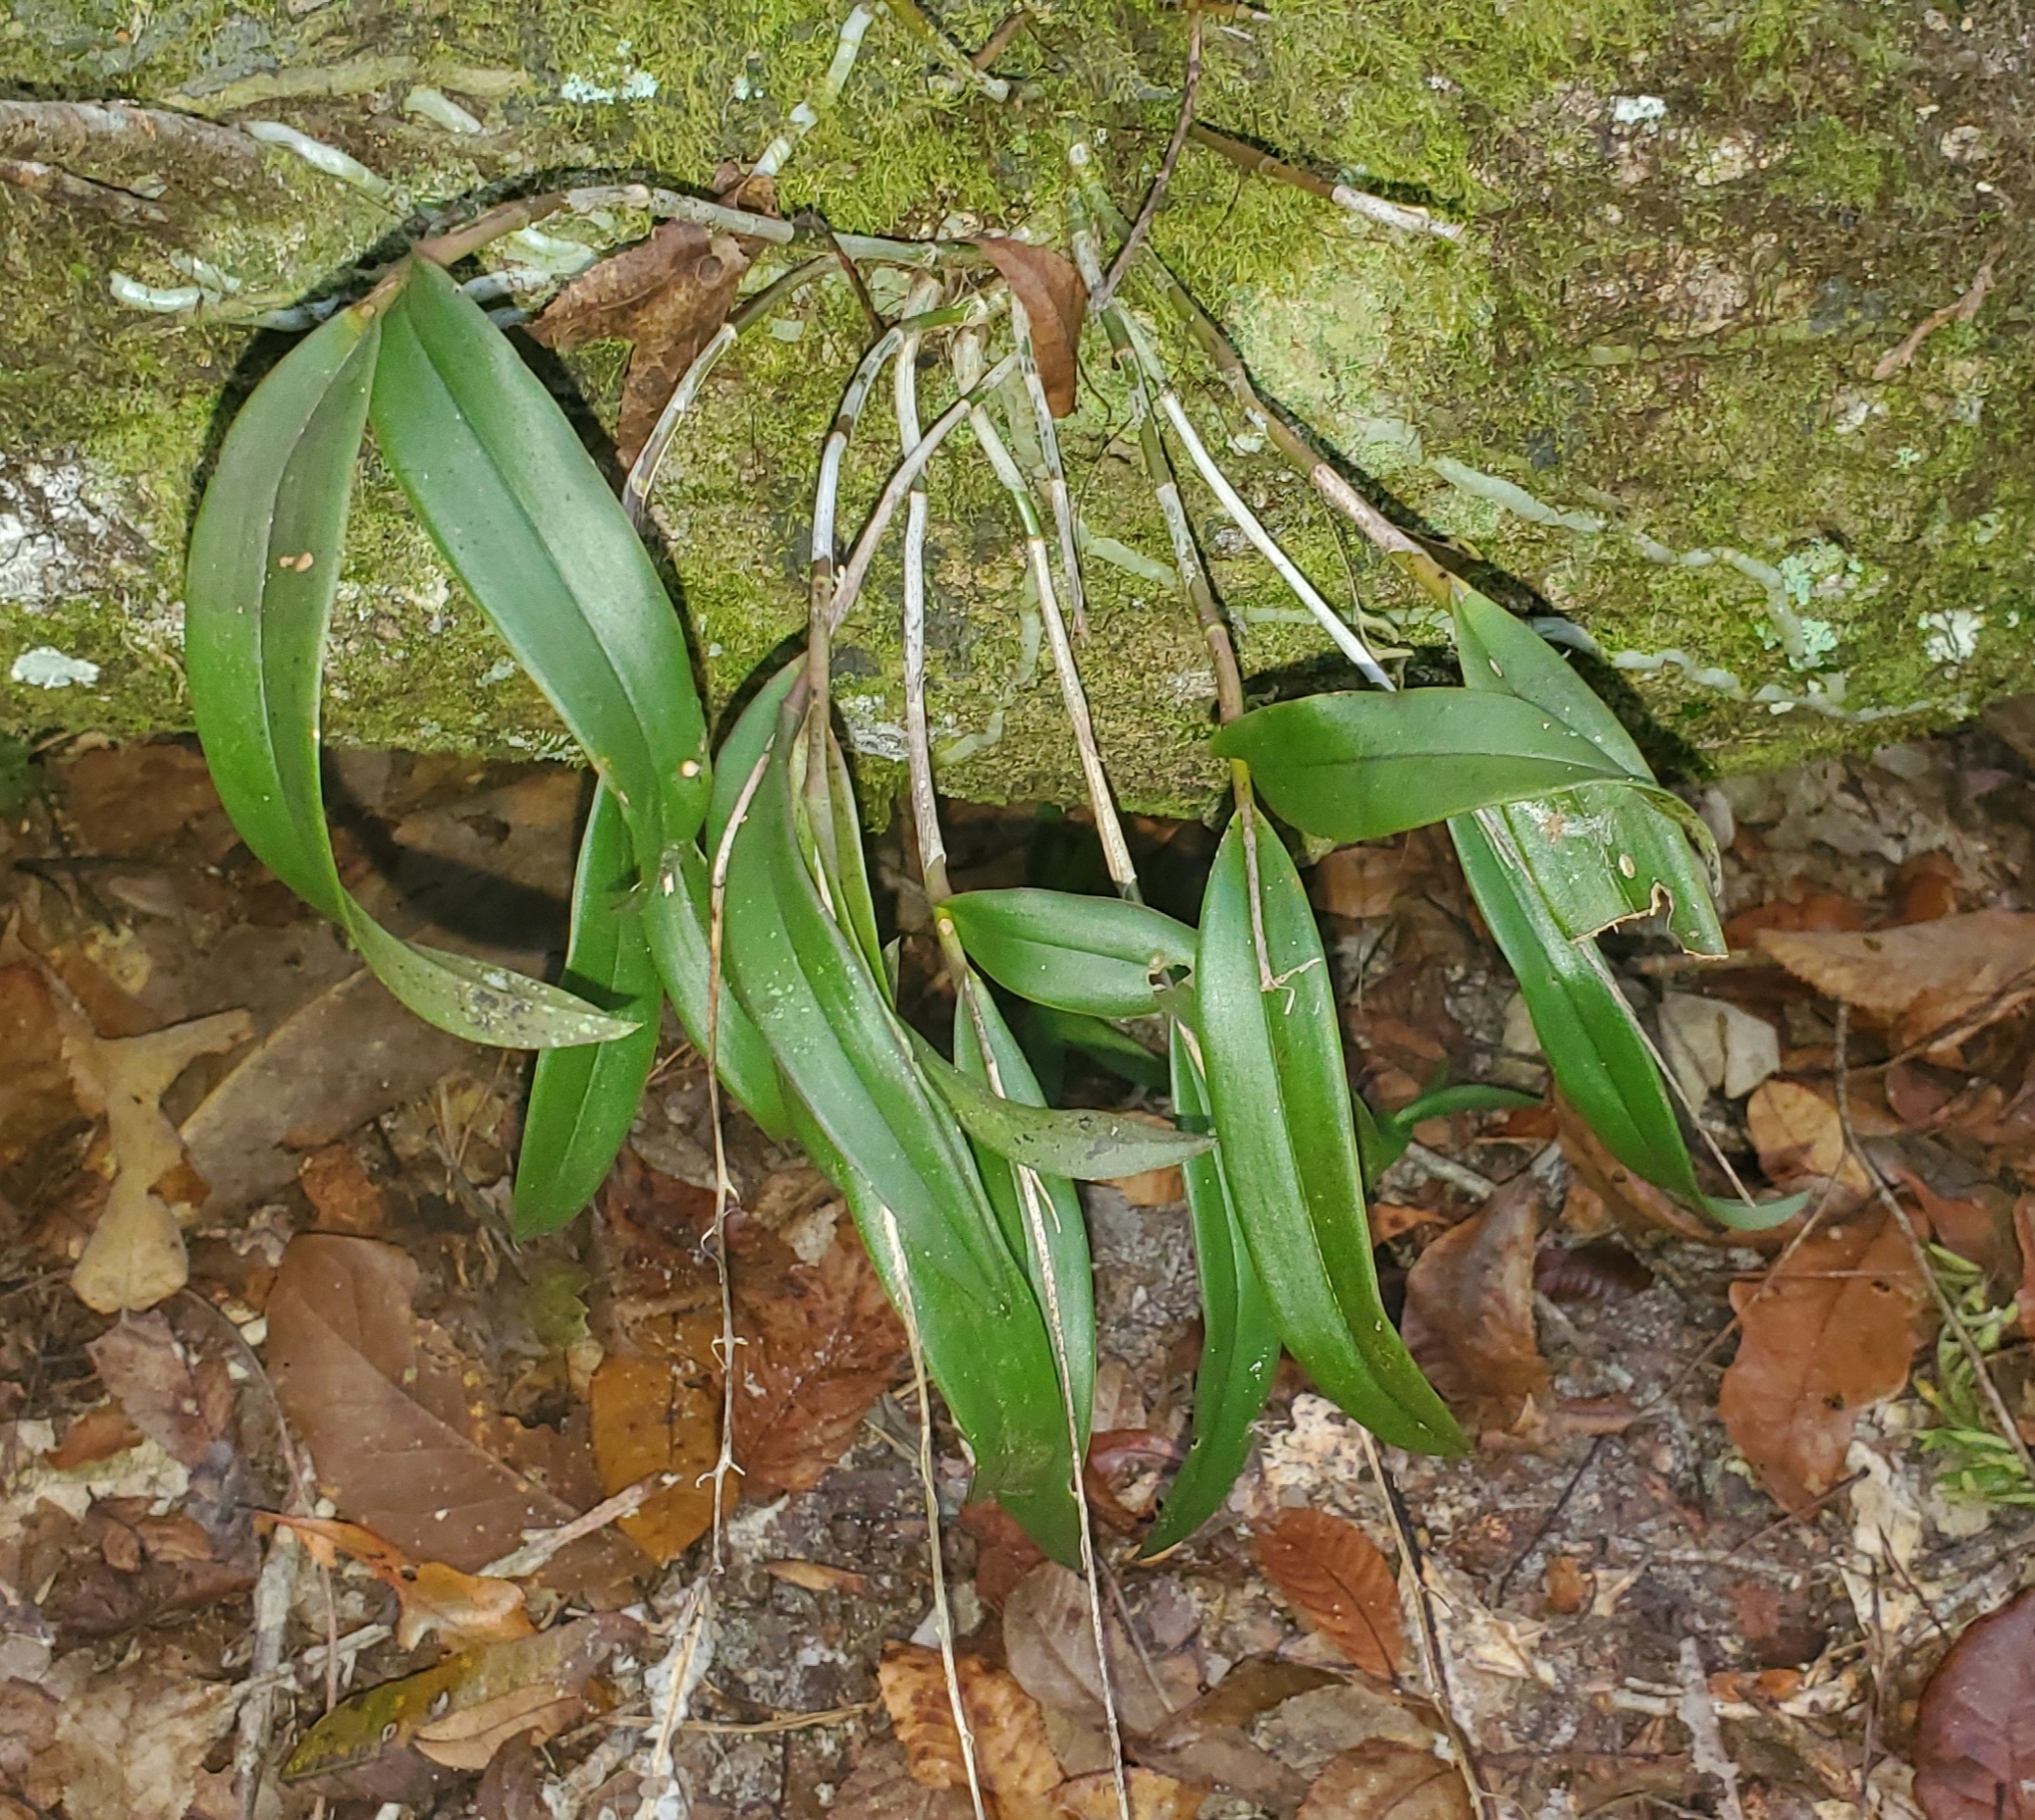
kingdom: Plantae
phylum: Tracheophyta
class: Liliopsida
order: Asparagales
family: Orchidaceae
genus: Epidendrum
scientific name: Epidendrum conopseum
